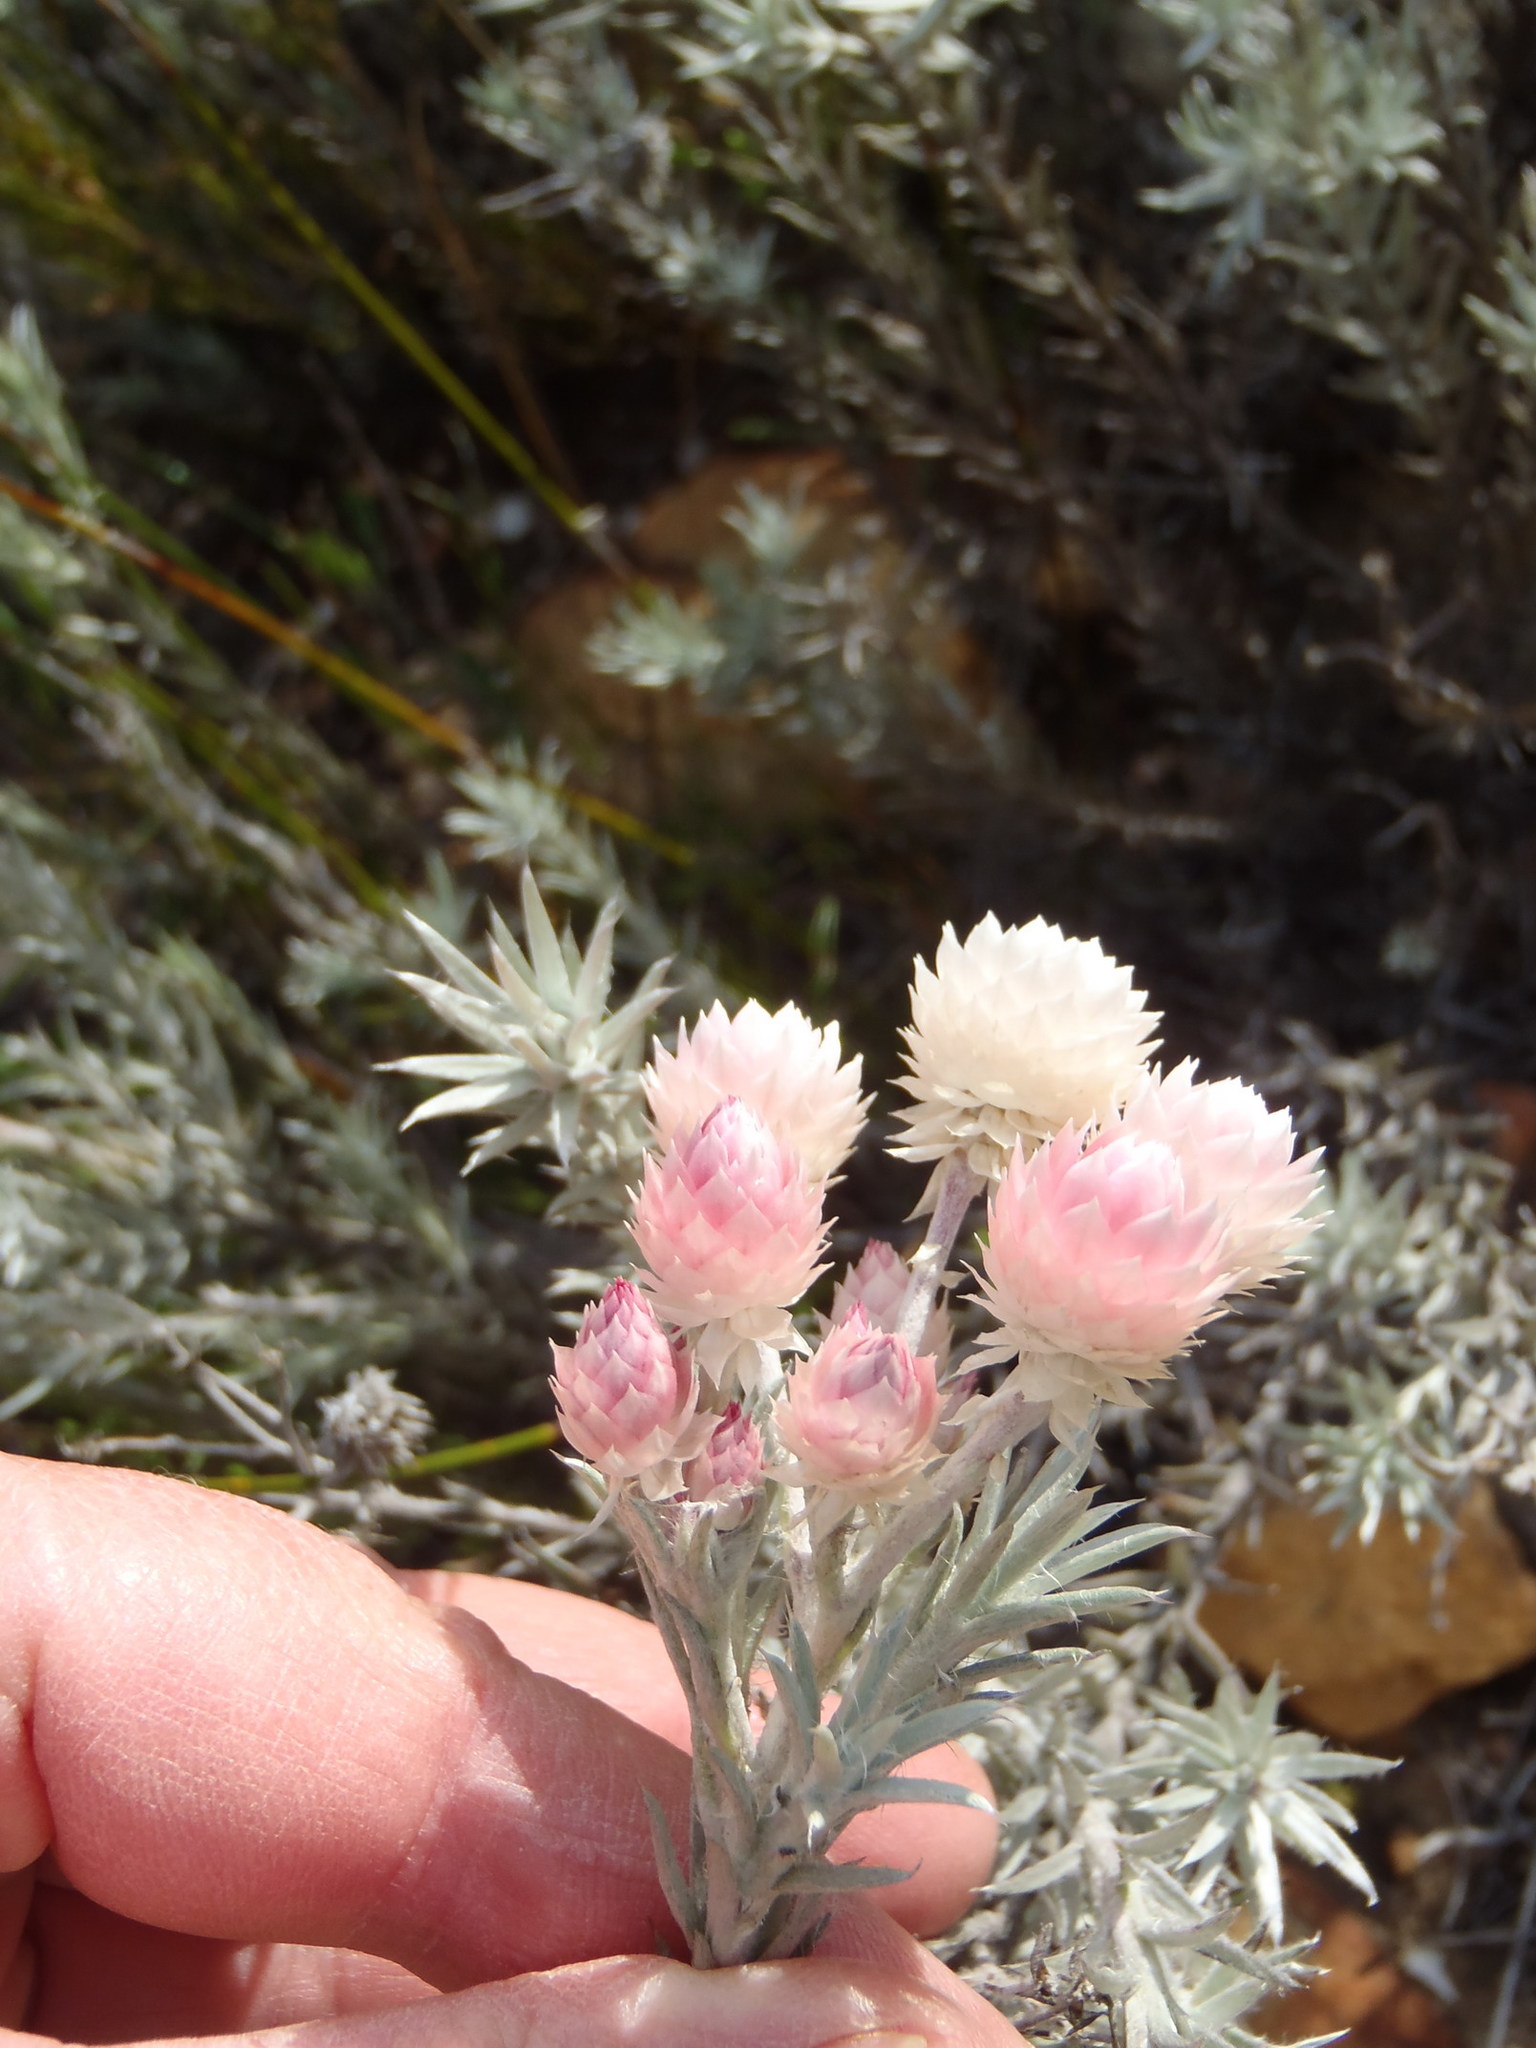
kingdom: Plantae
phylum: Tracheophyta
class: Magnoliopsida
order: Asterales
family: Asteraceae
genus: Achyranthemum
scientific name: Achyranthemum paniculatum
